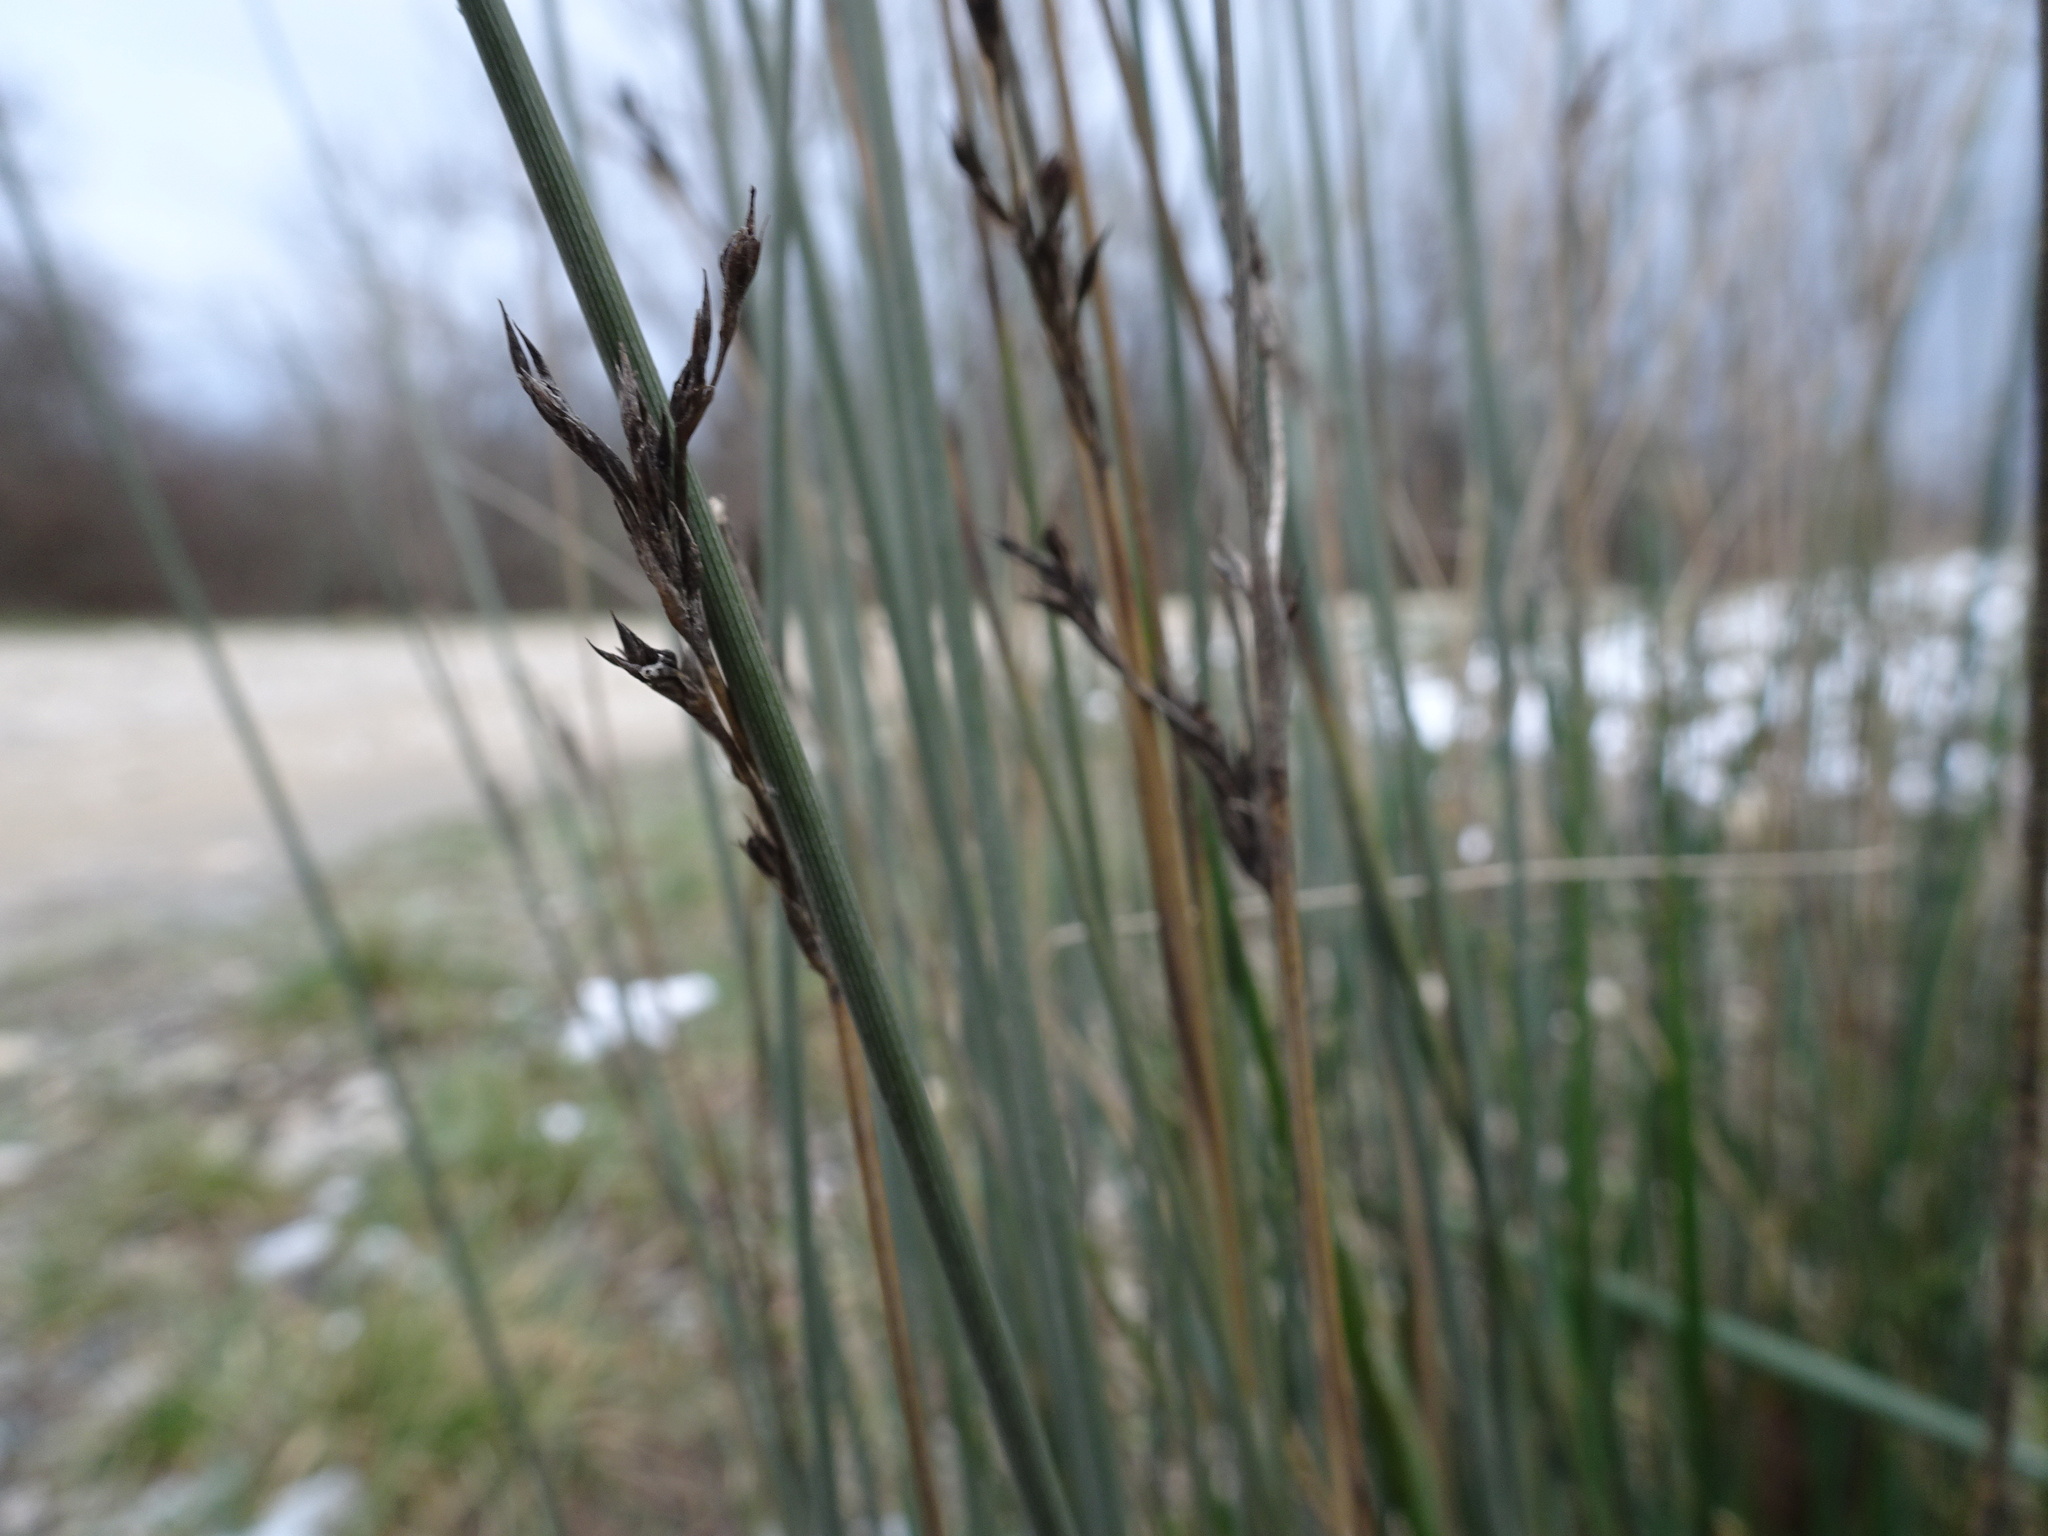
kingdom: Plantae
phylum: Tracheophyta
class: Liliopsida
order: Poales
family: Juncaceae
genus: Juncus
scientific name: Juncus inflexus
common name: Hard rush
